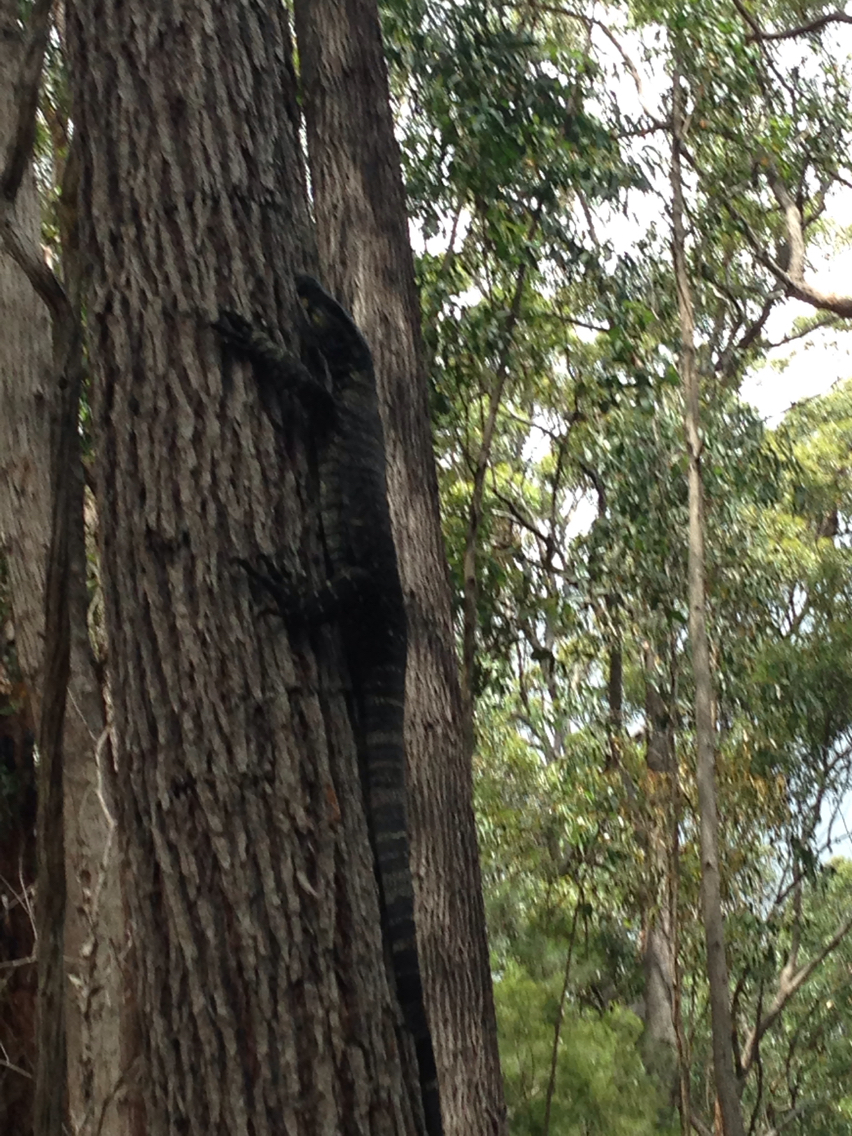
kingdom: Animalia
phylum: Chordata
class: Squamata
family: Varanidae
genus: Varanus
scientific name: Varanus varius
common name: Lace monitor
